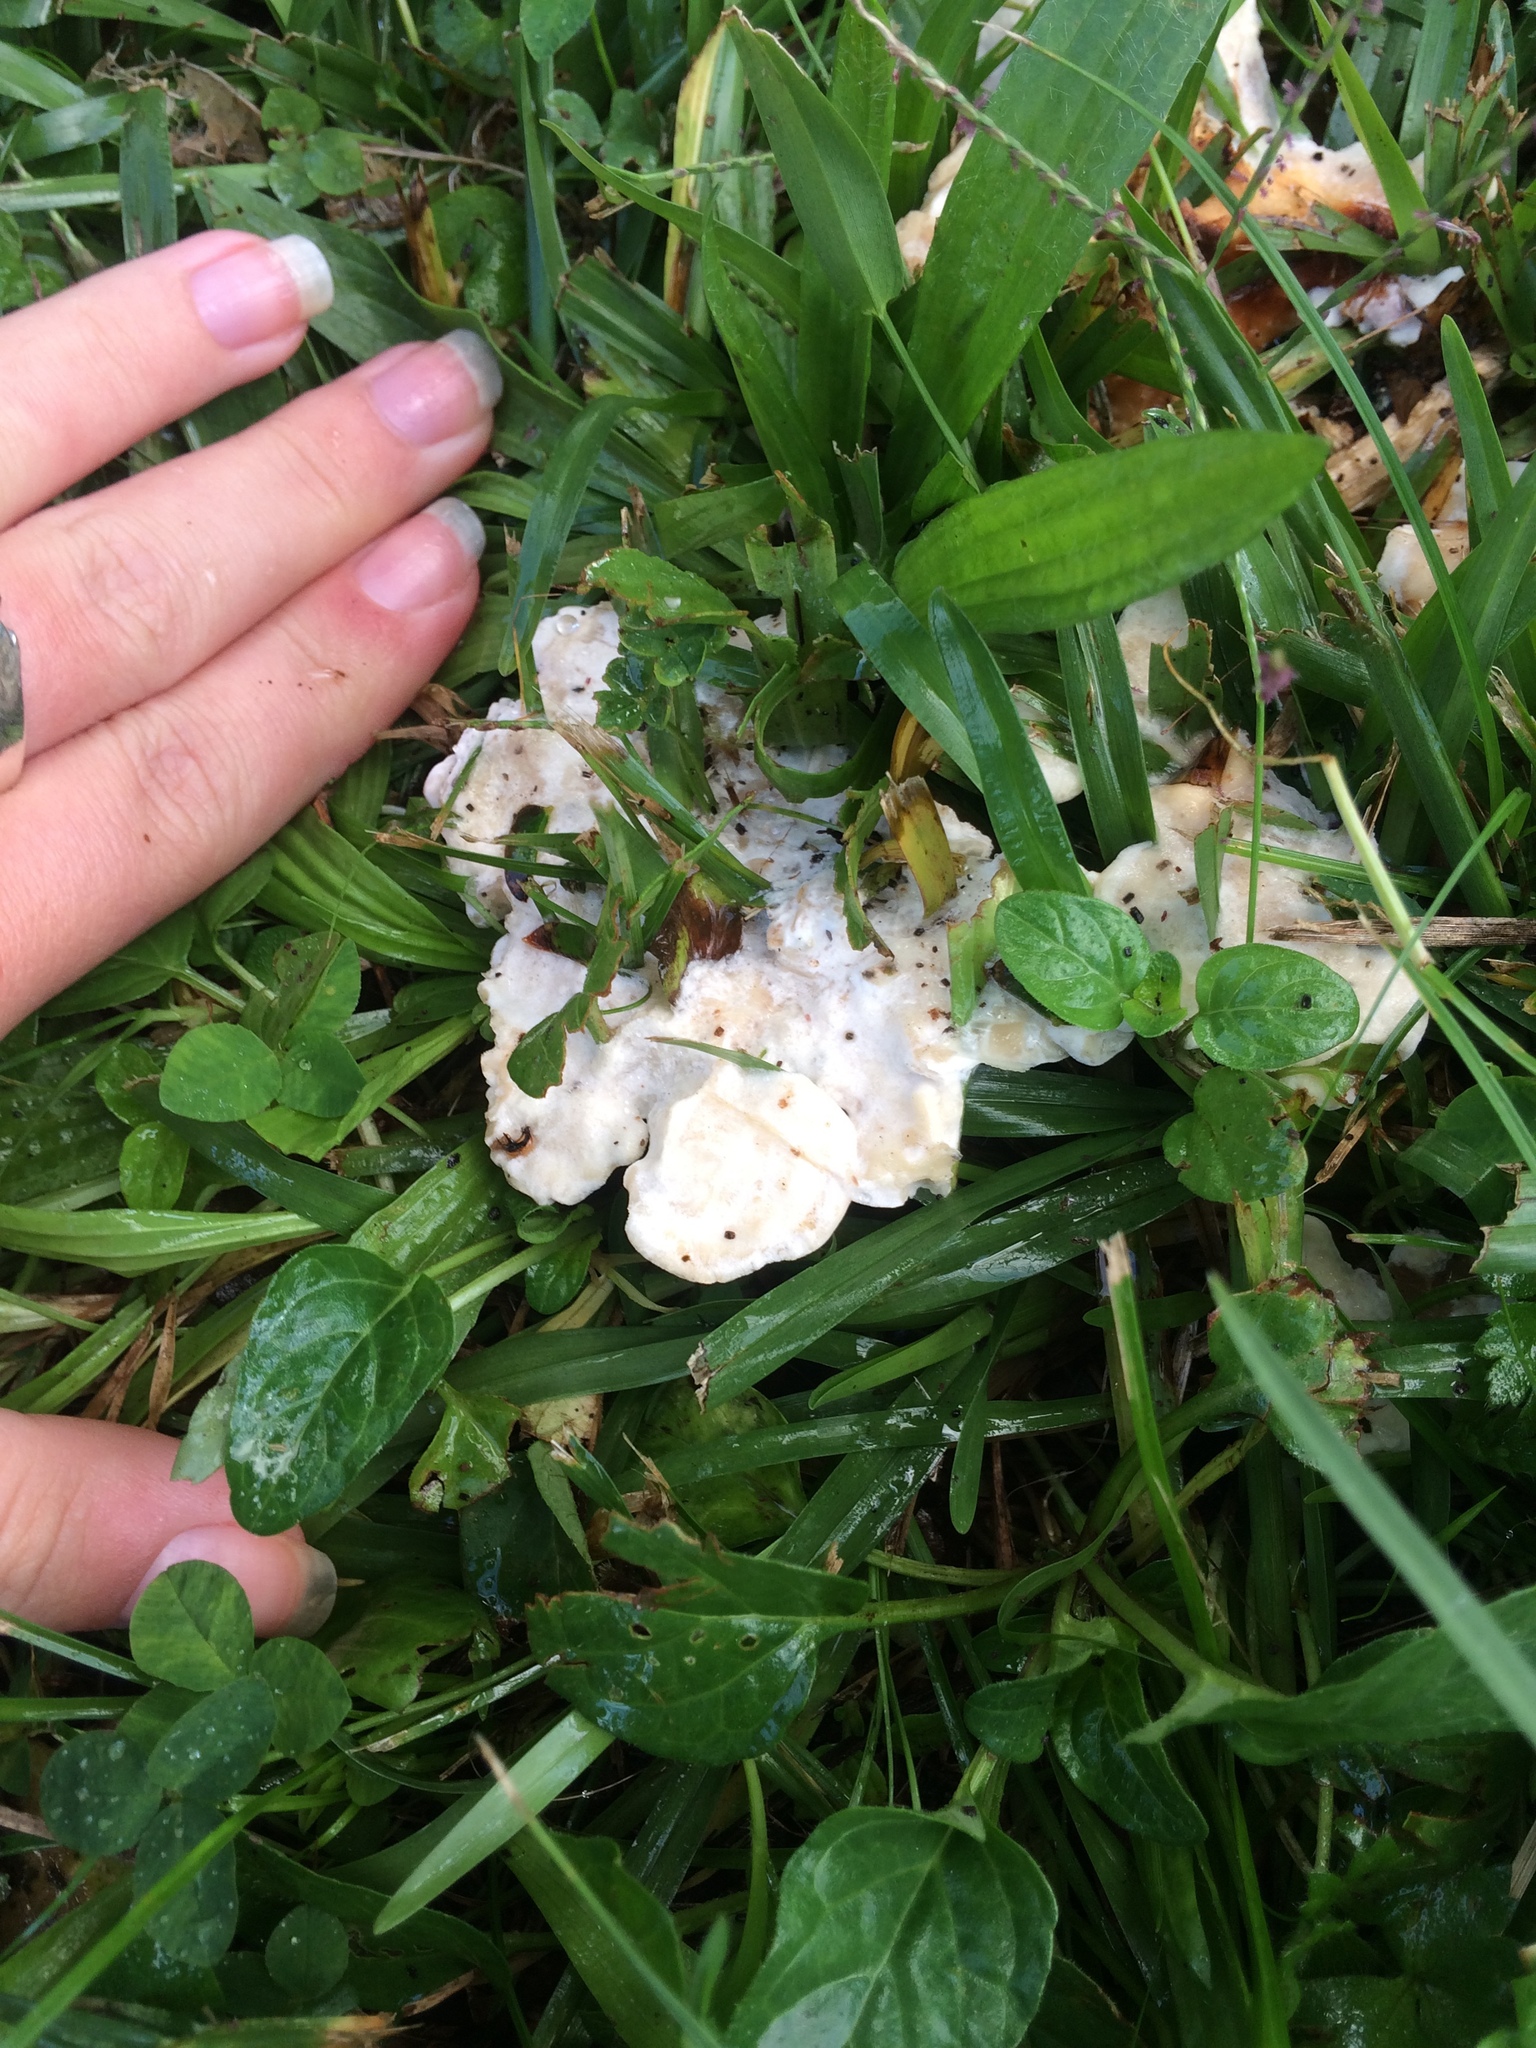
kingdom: Fungi
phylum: Basidiomycota
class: Agaricomycetes
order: Polyporales
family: Podoscyphaceae
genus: Abortiporus
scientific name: Abortiporus biennis
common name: Blushing rosette
